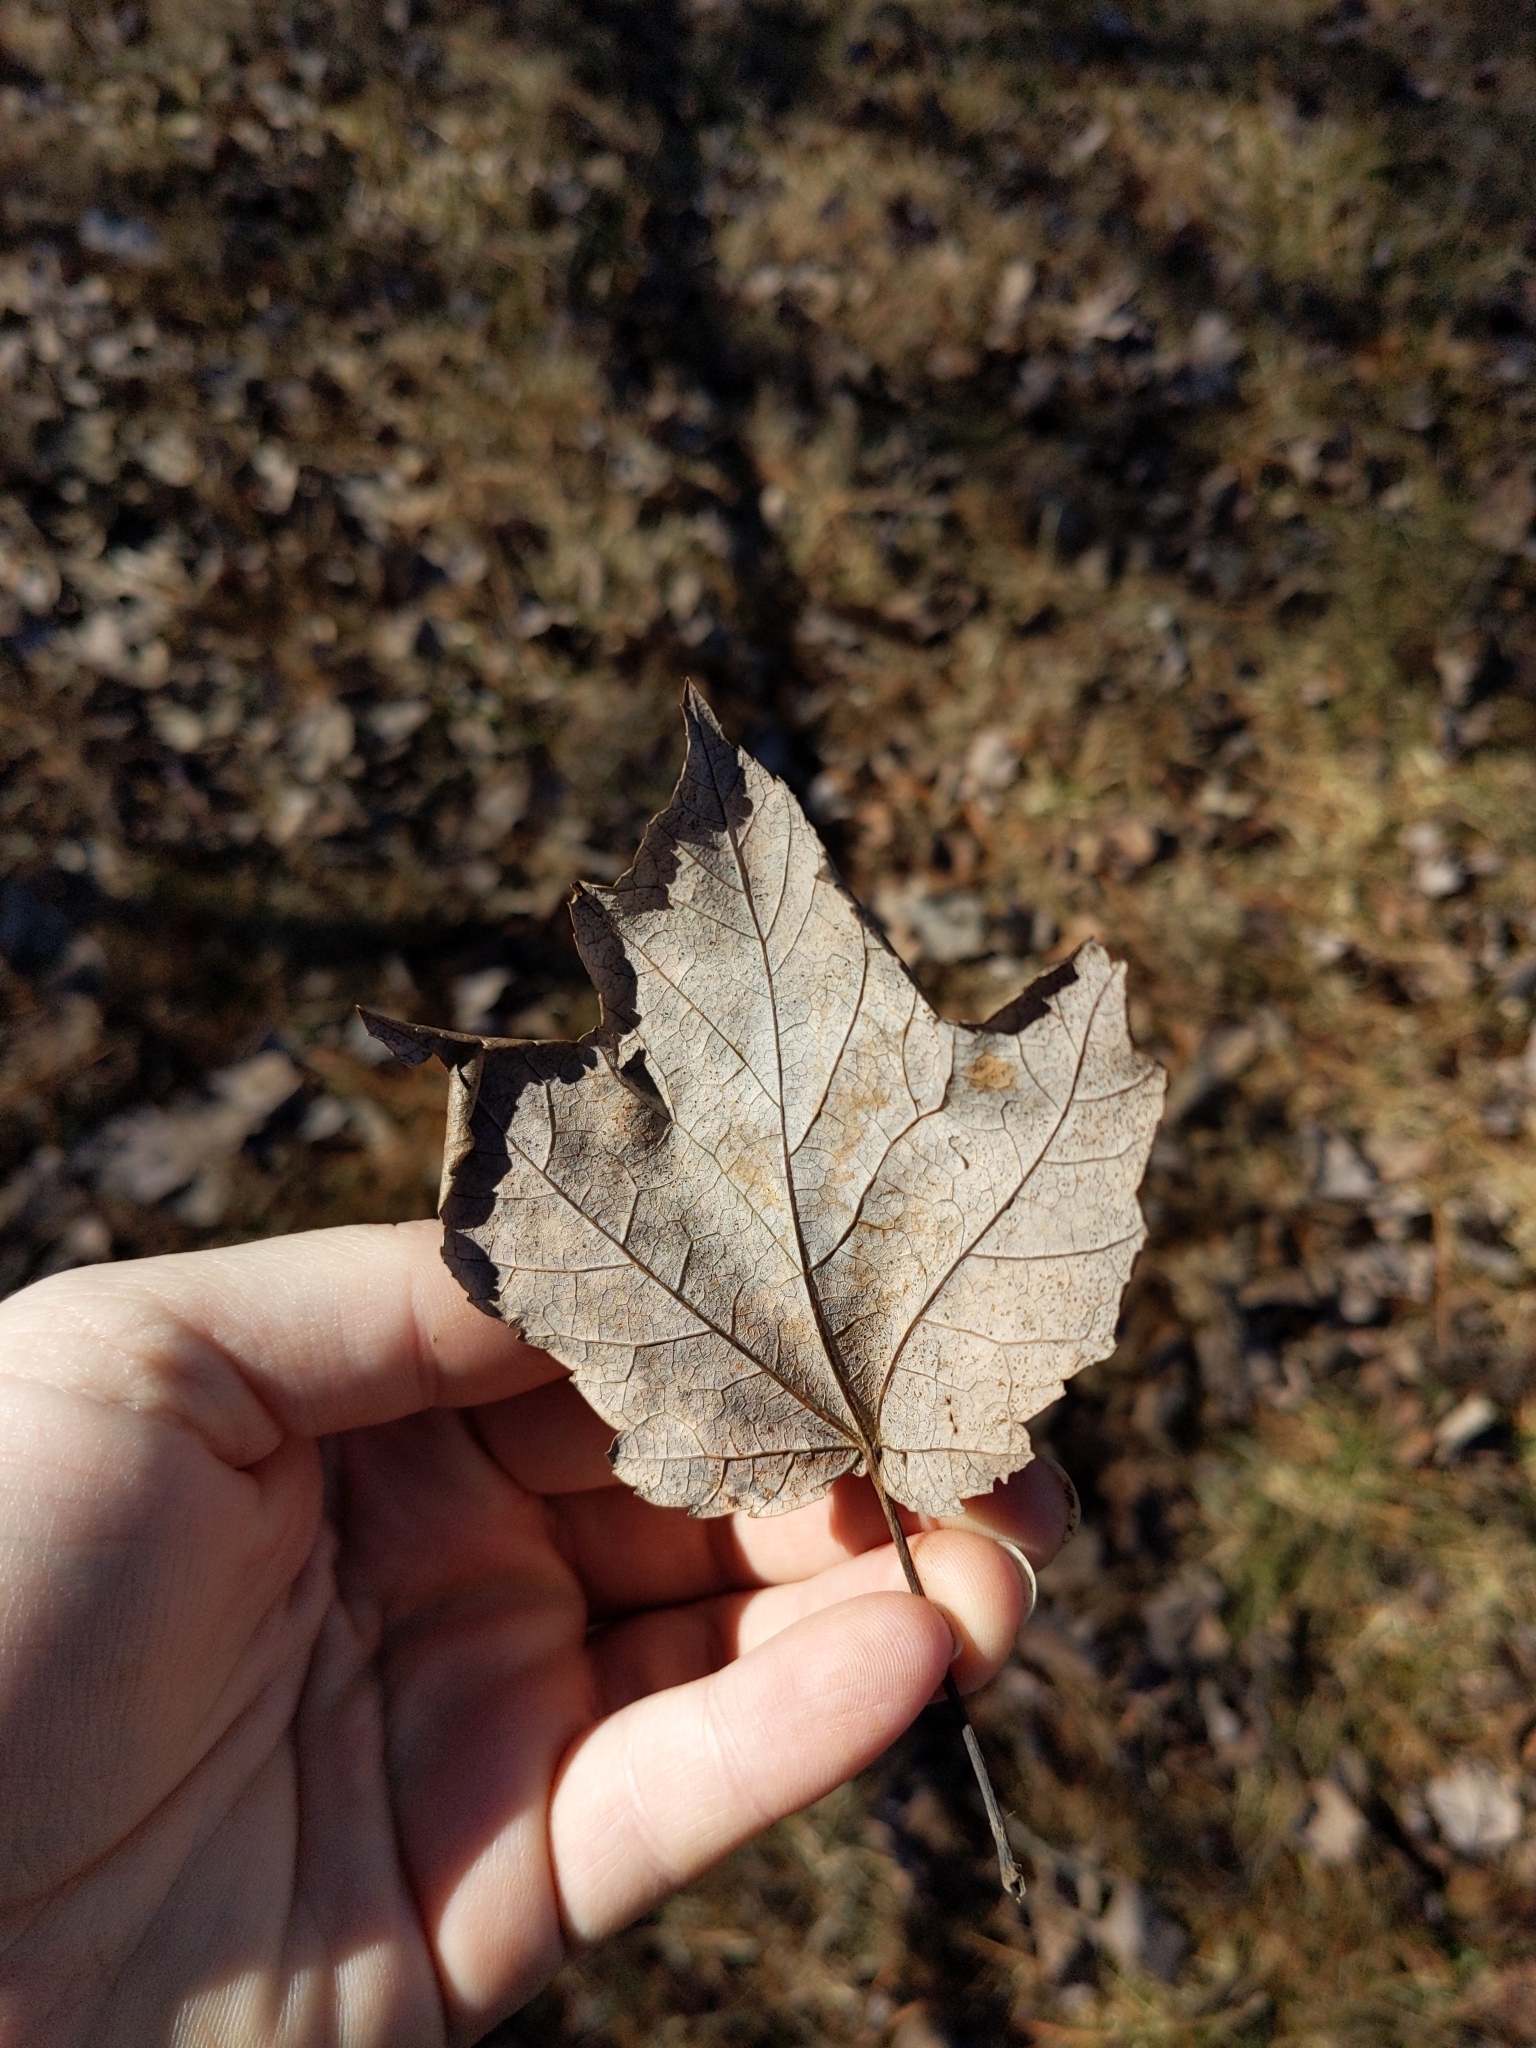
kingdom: Plantae
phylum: Tracheophyta
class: Magnoliopsida
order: Sapindales
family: Sapindaceae
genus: Acer
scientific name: Acer rubrum
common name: Red maple
